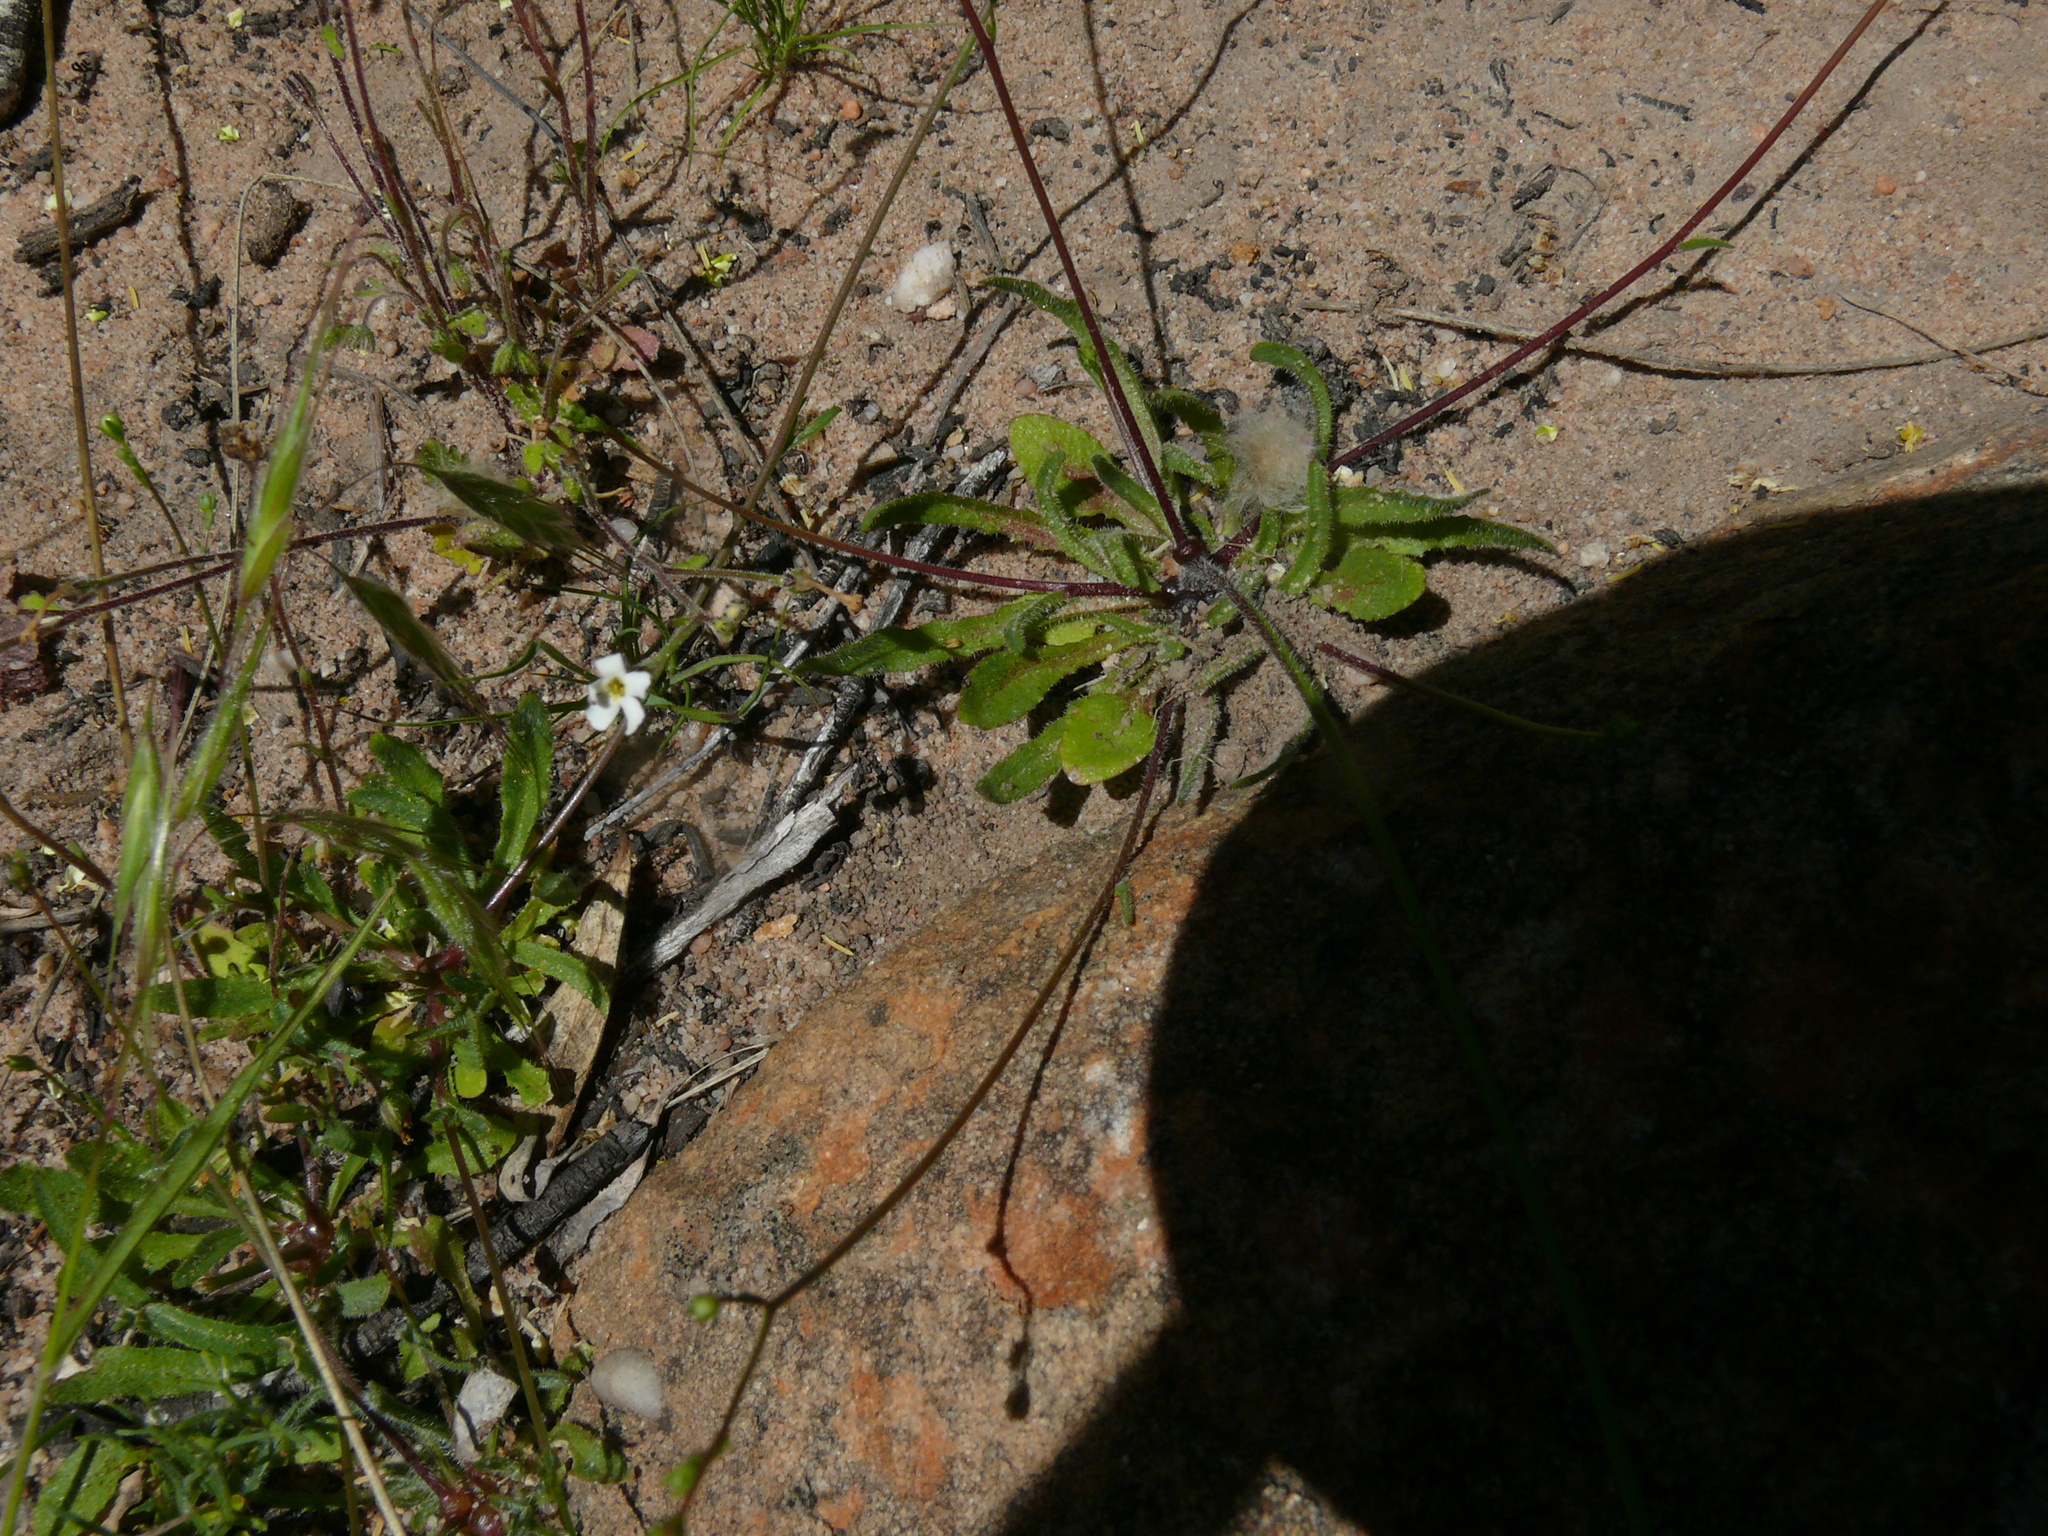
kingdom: Plantae
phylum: Tracheophyta
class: Magnoliopsida
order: Asterales
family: Campanulaceae
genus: Wahlenbergia
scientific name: Wahlenbergia annularis
